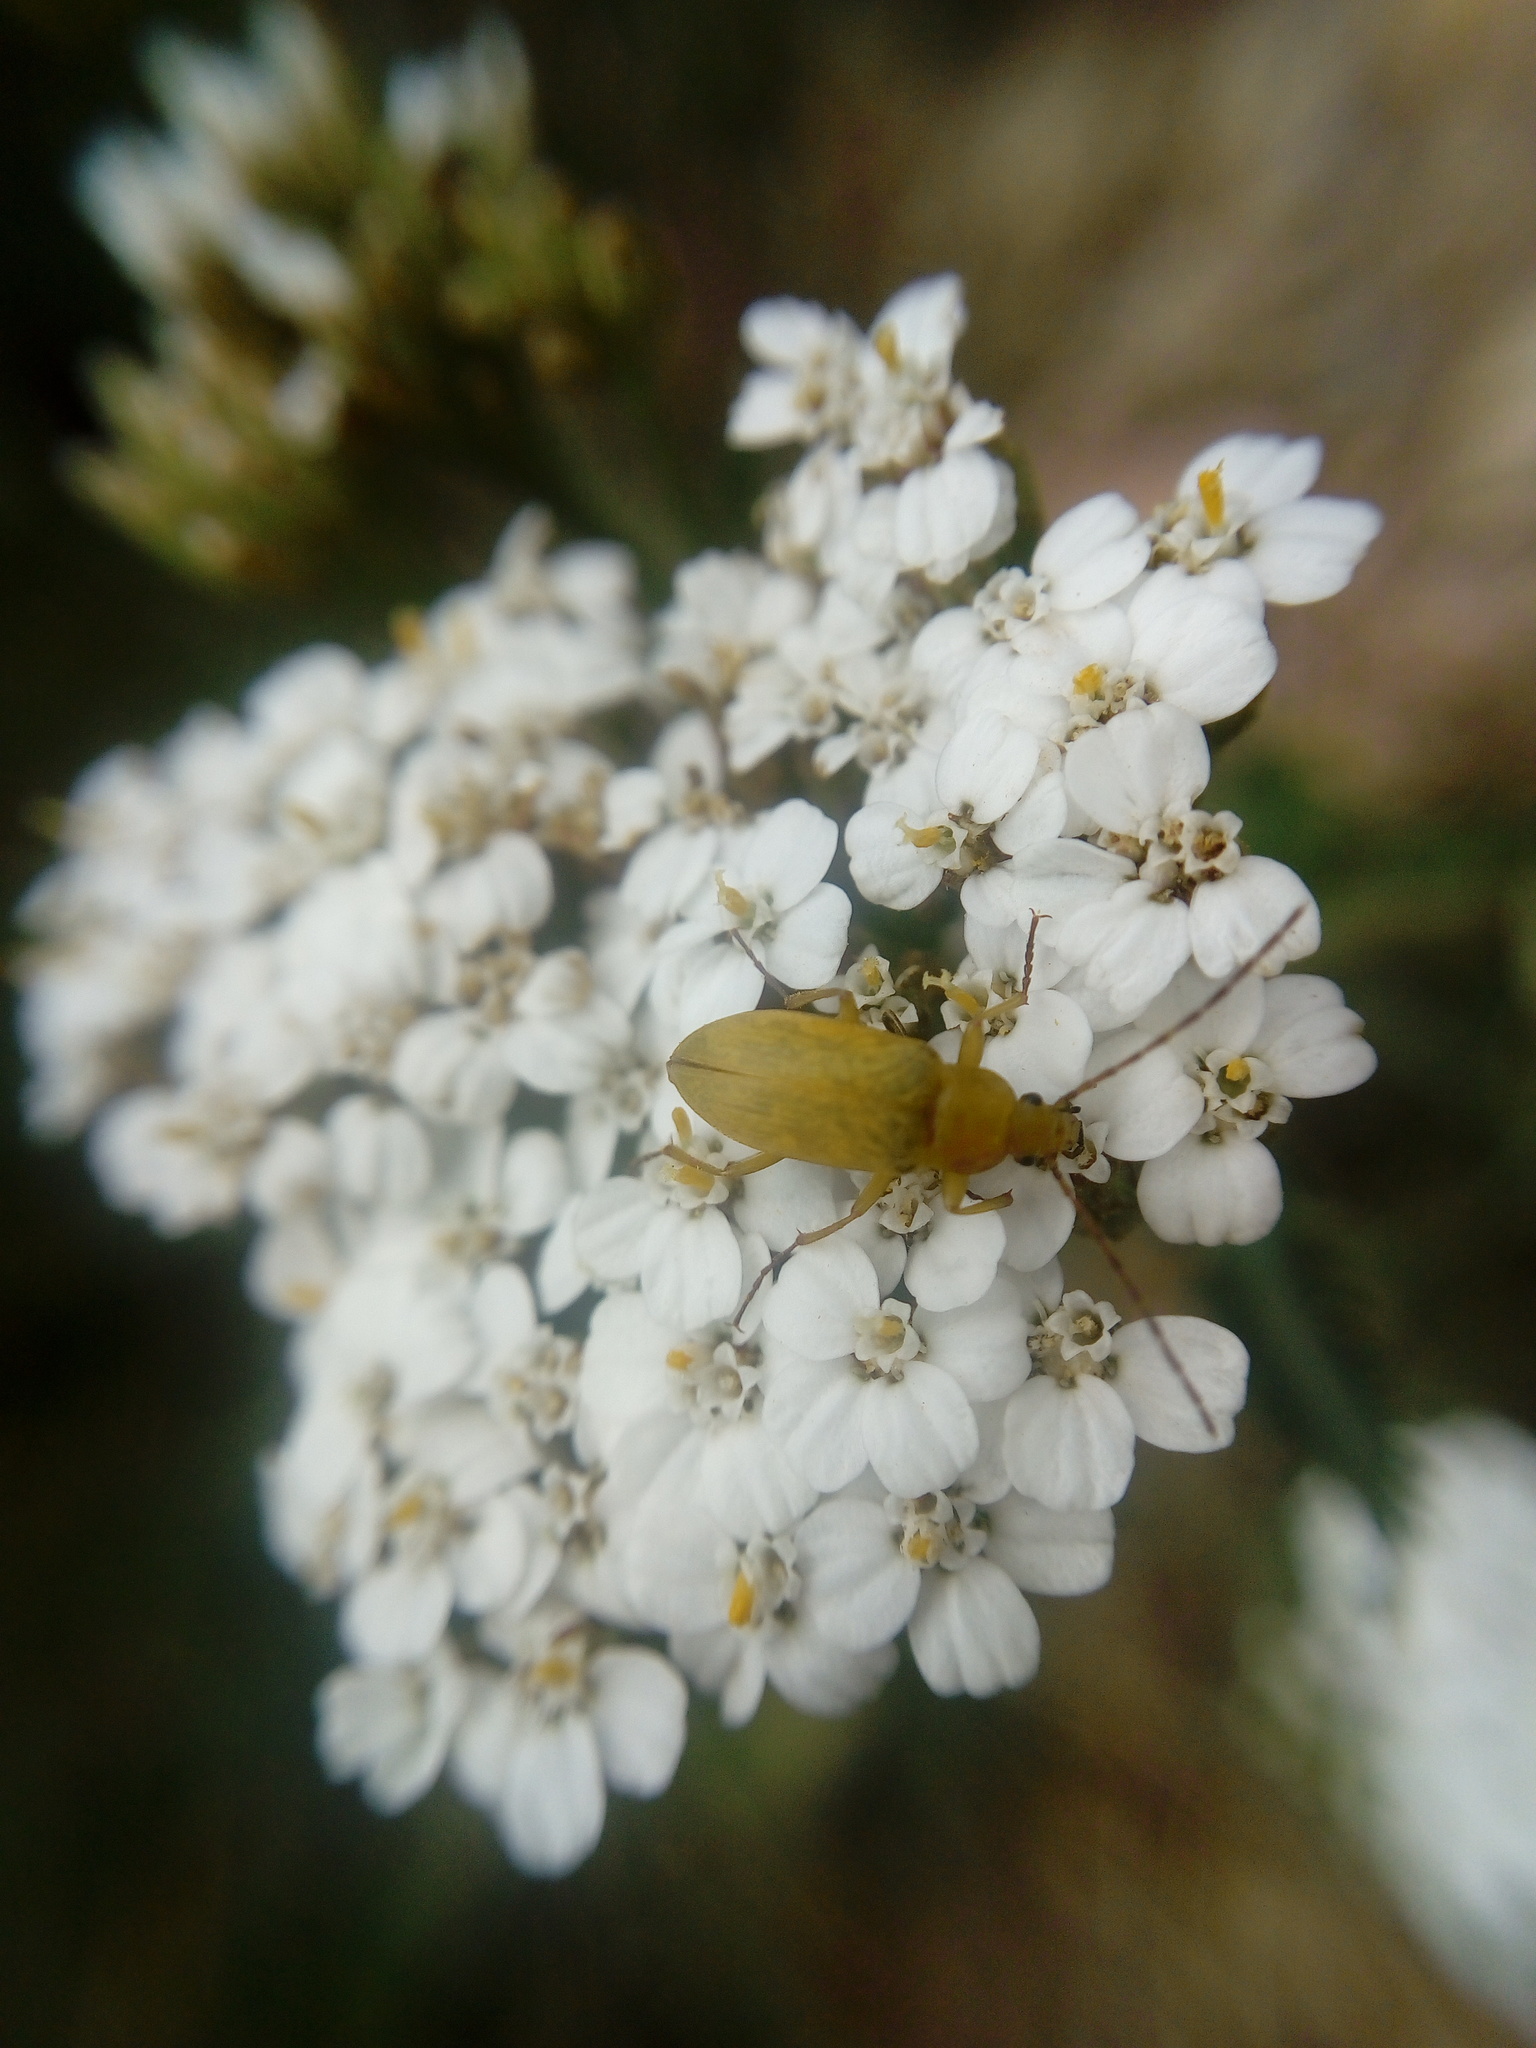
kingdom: Animalia
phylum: Arthropoda
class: Insecta
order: Coleoptera
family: Tenebrionidae
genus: Cteniopus
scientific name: Cteniopus sulphureus
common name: Sulphur beetle
